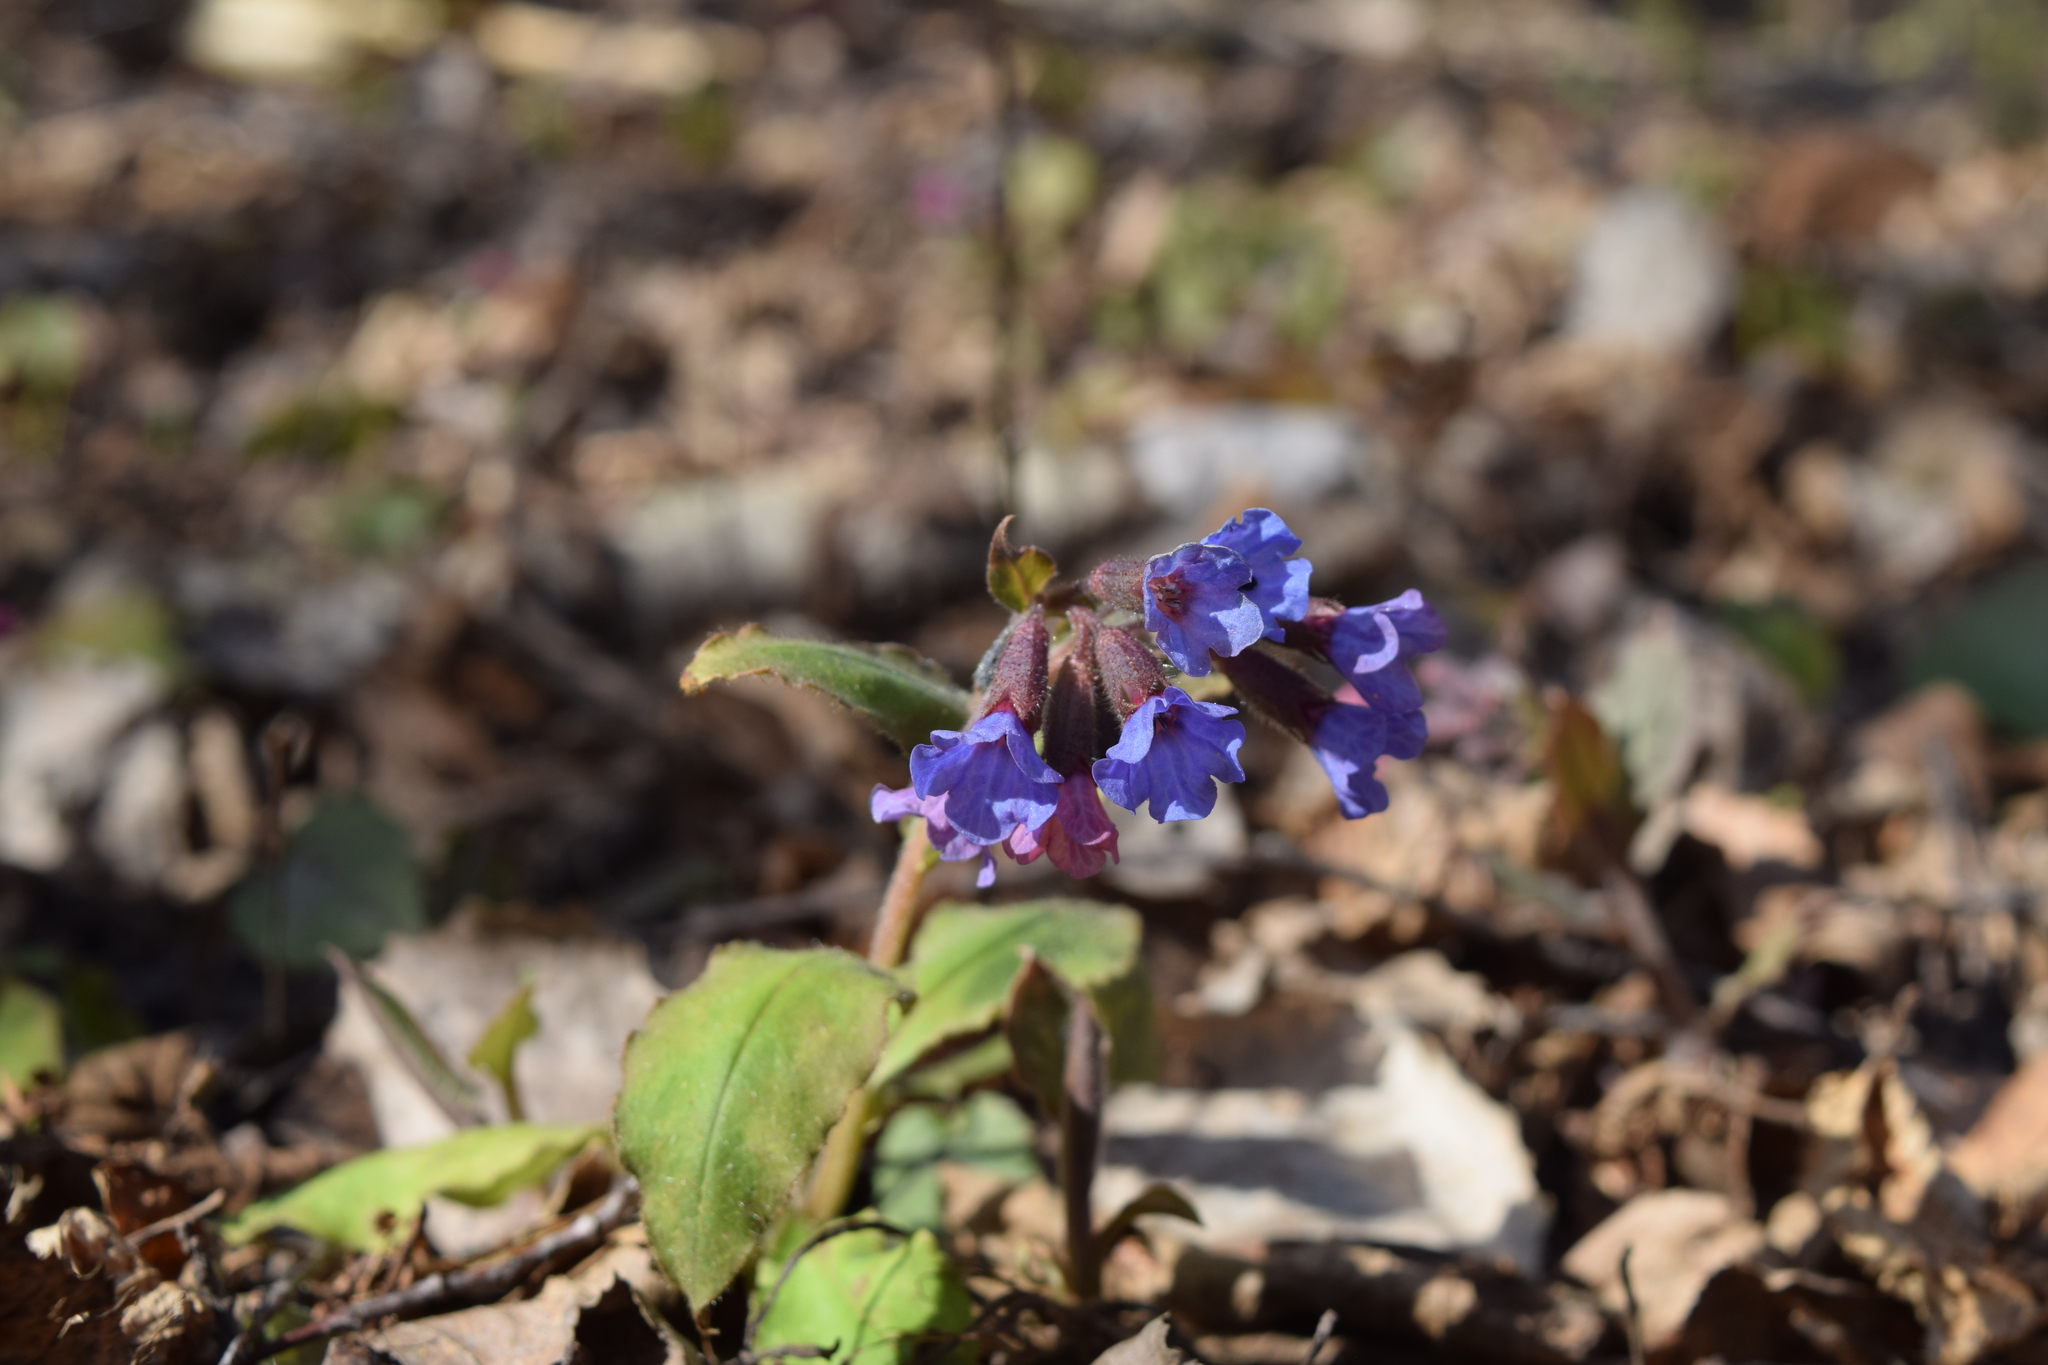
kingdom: Plantae
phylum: Tracheophyta
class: Magnoliopsida
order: Boraginales
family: Boraginaceae
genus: Pulmonaria
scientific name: Pulmonaria obscura
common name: Suffolk lungwort
